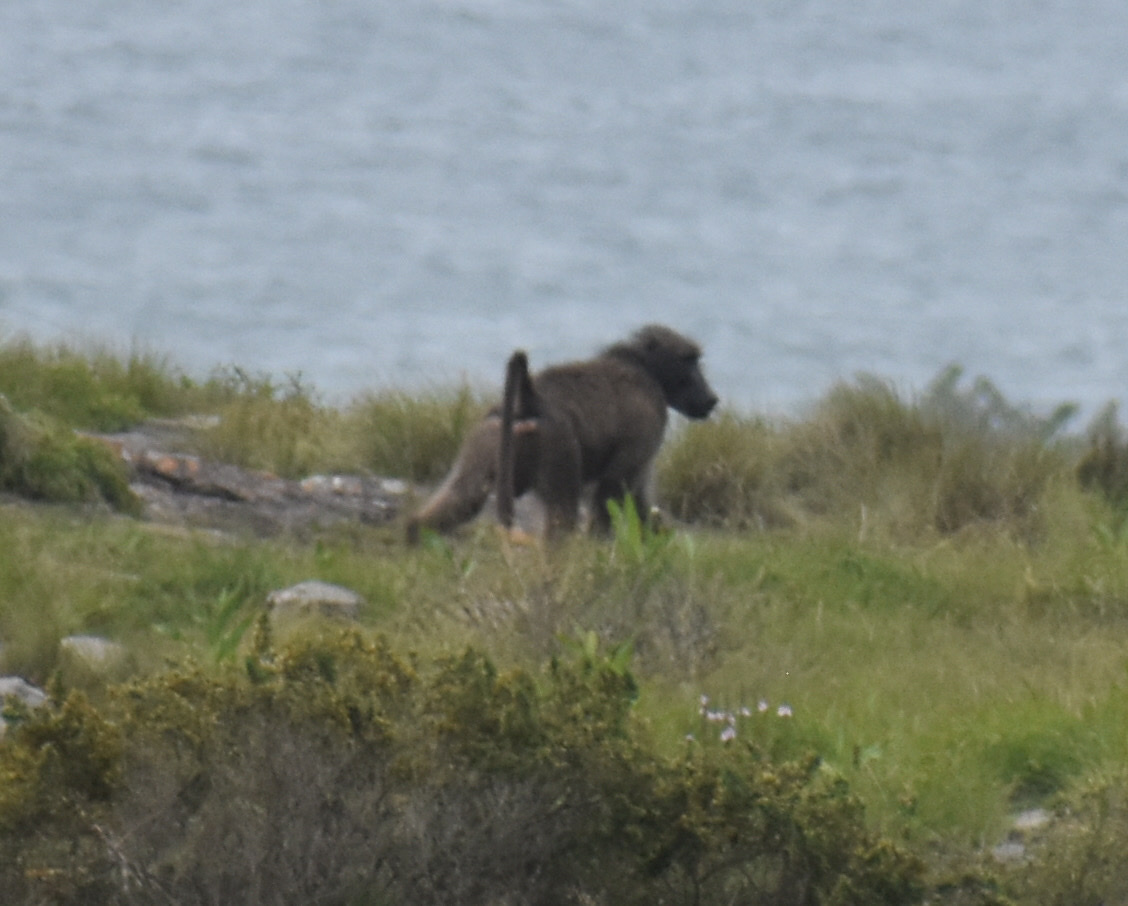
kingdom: Animalia
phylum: Chordata
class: Mammalia
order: Primates
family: Cercopithecidae
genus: Papio
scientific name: Papio ursinus
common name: Chacma baboon
